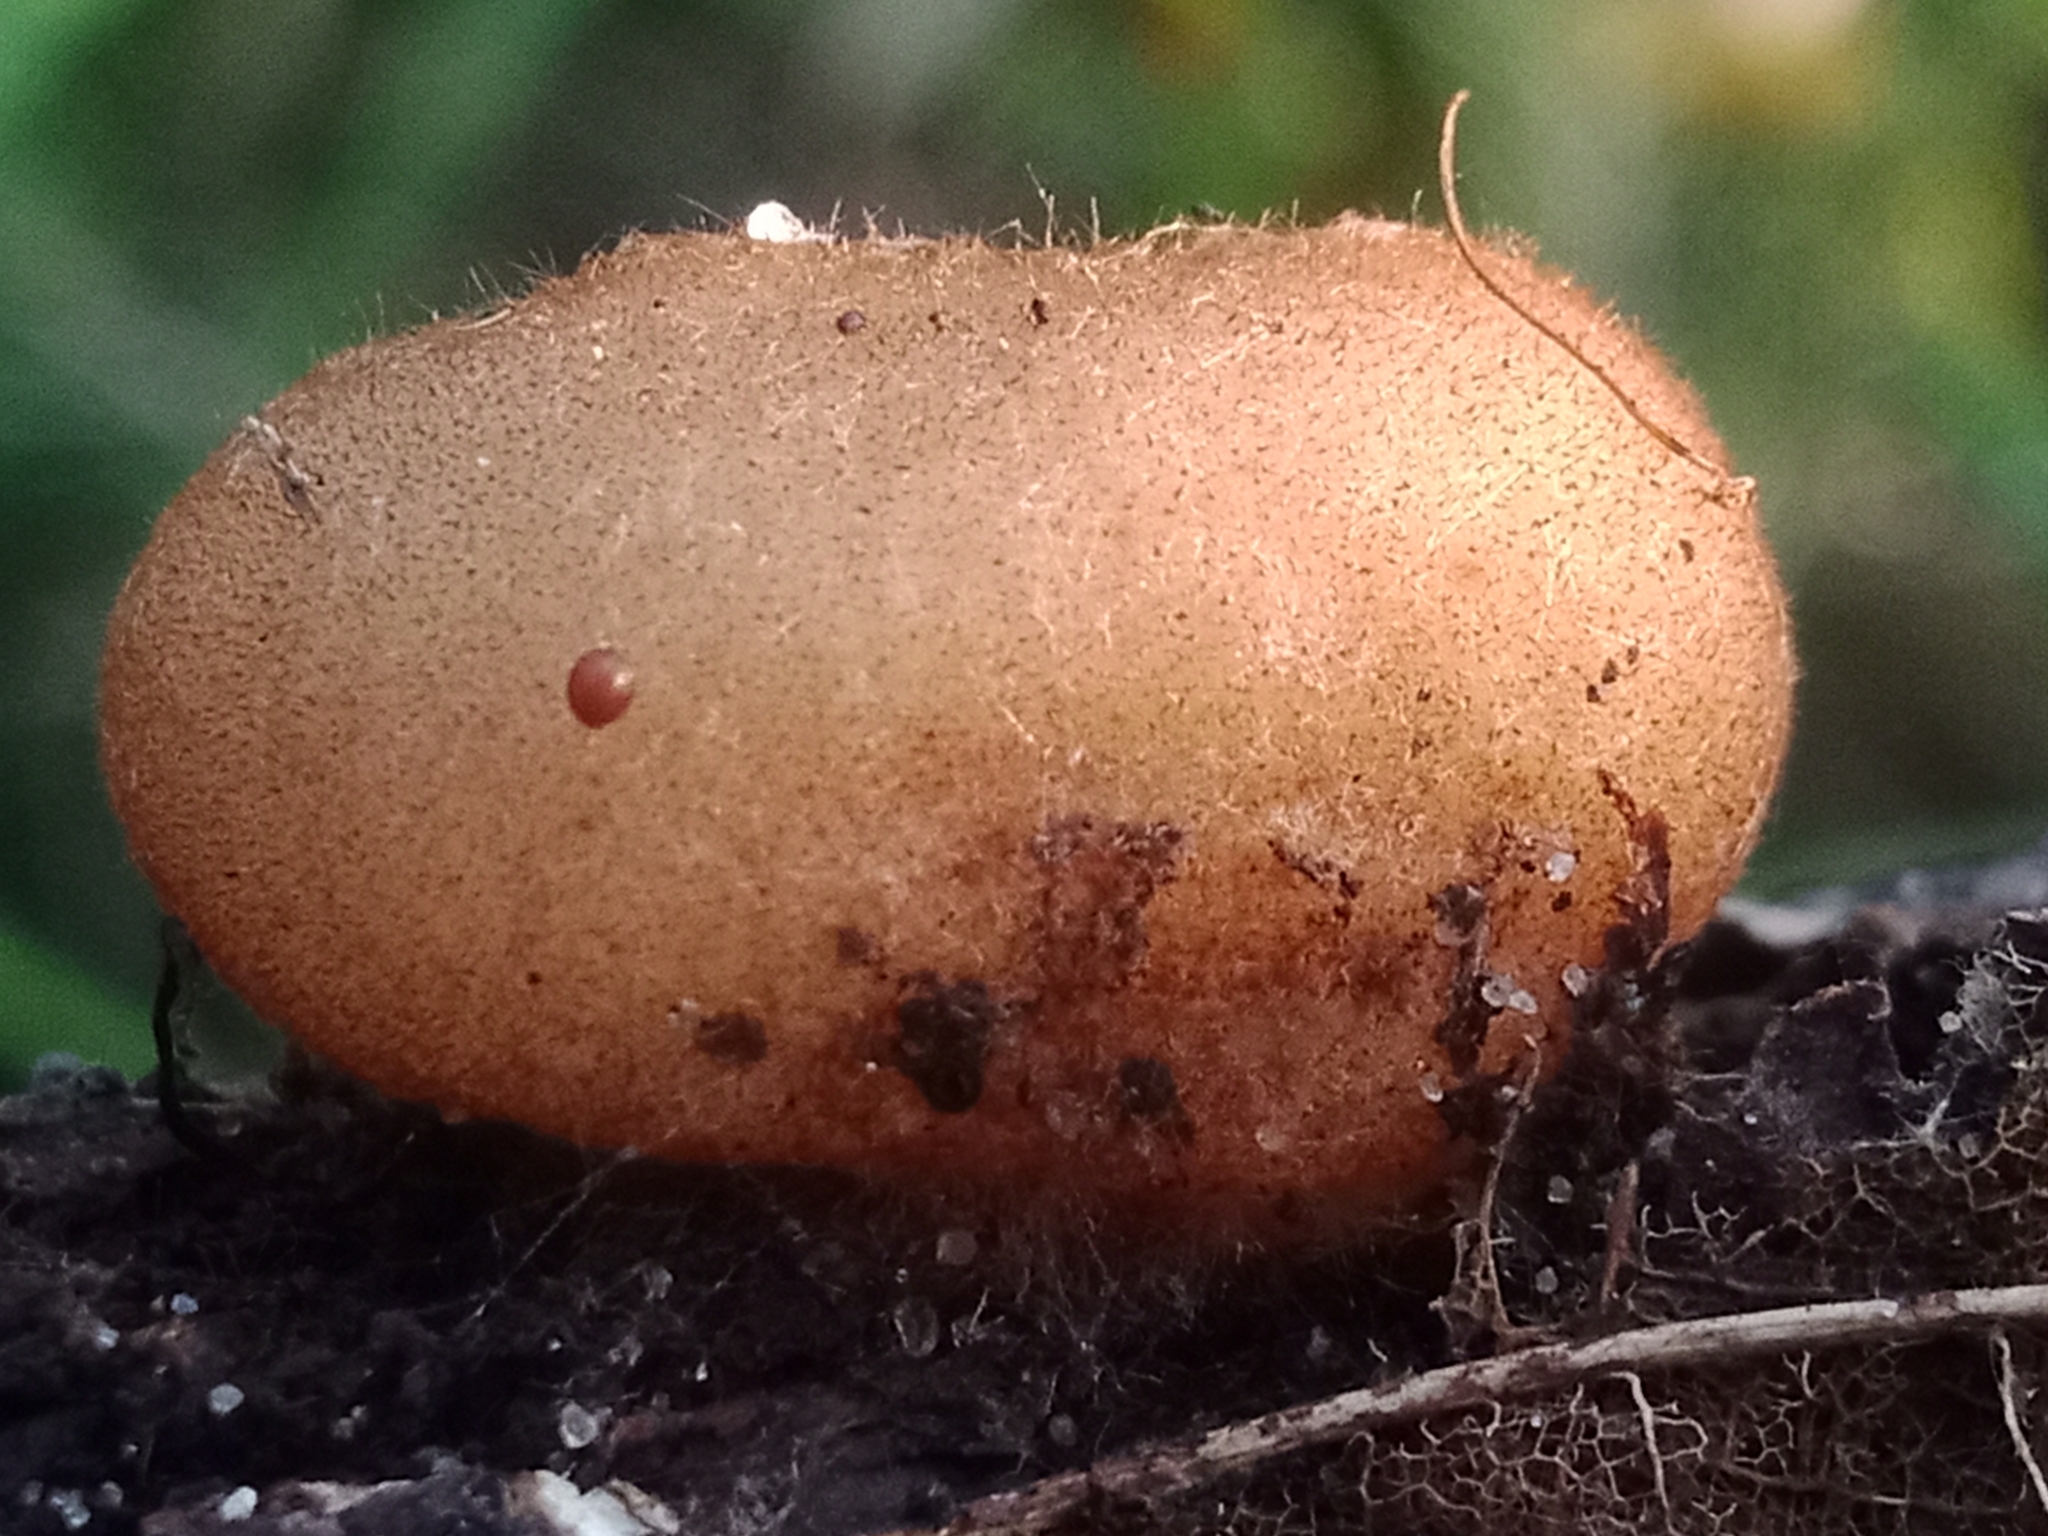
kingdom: Fungi
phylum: Ascomycota
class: Pezizomycetes
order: Pezizales
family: Pyronemataceae
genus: Humaria
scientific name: Humaria hemisphaerica
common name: Glazed cup
